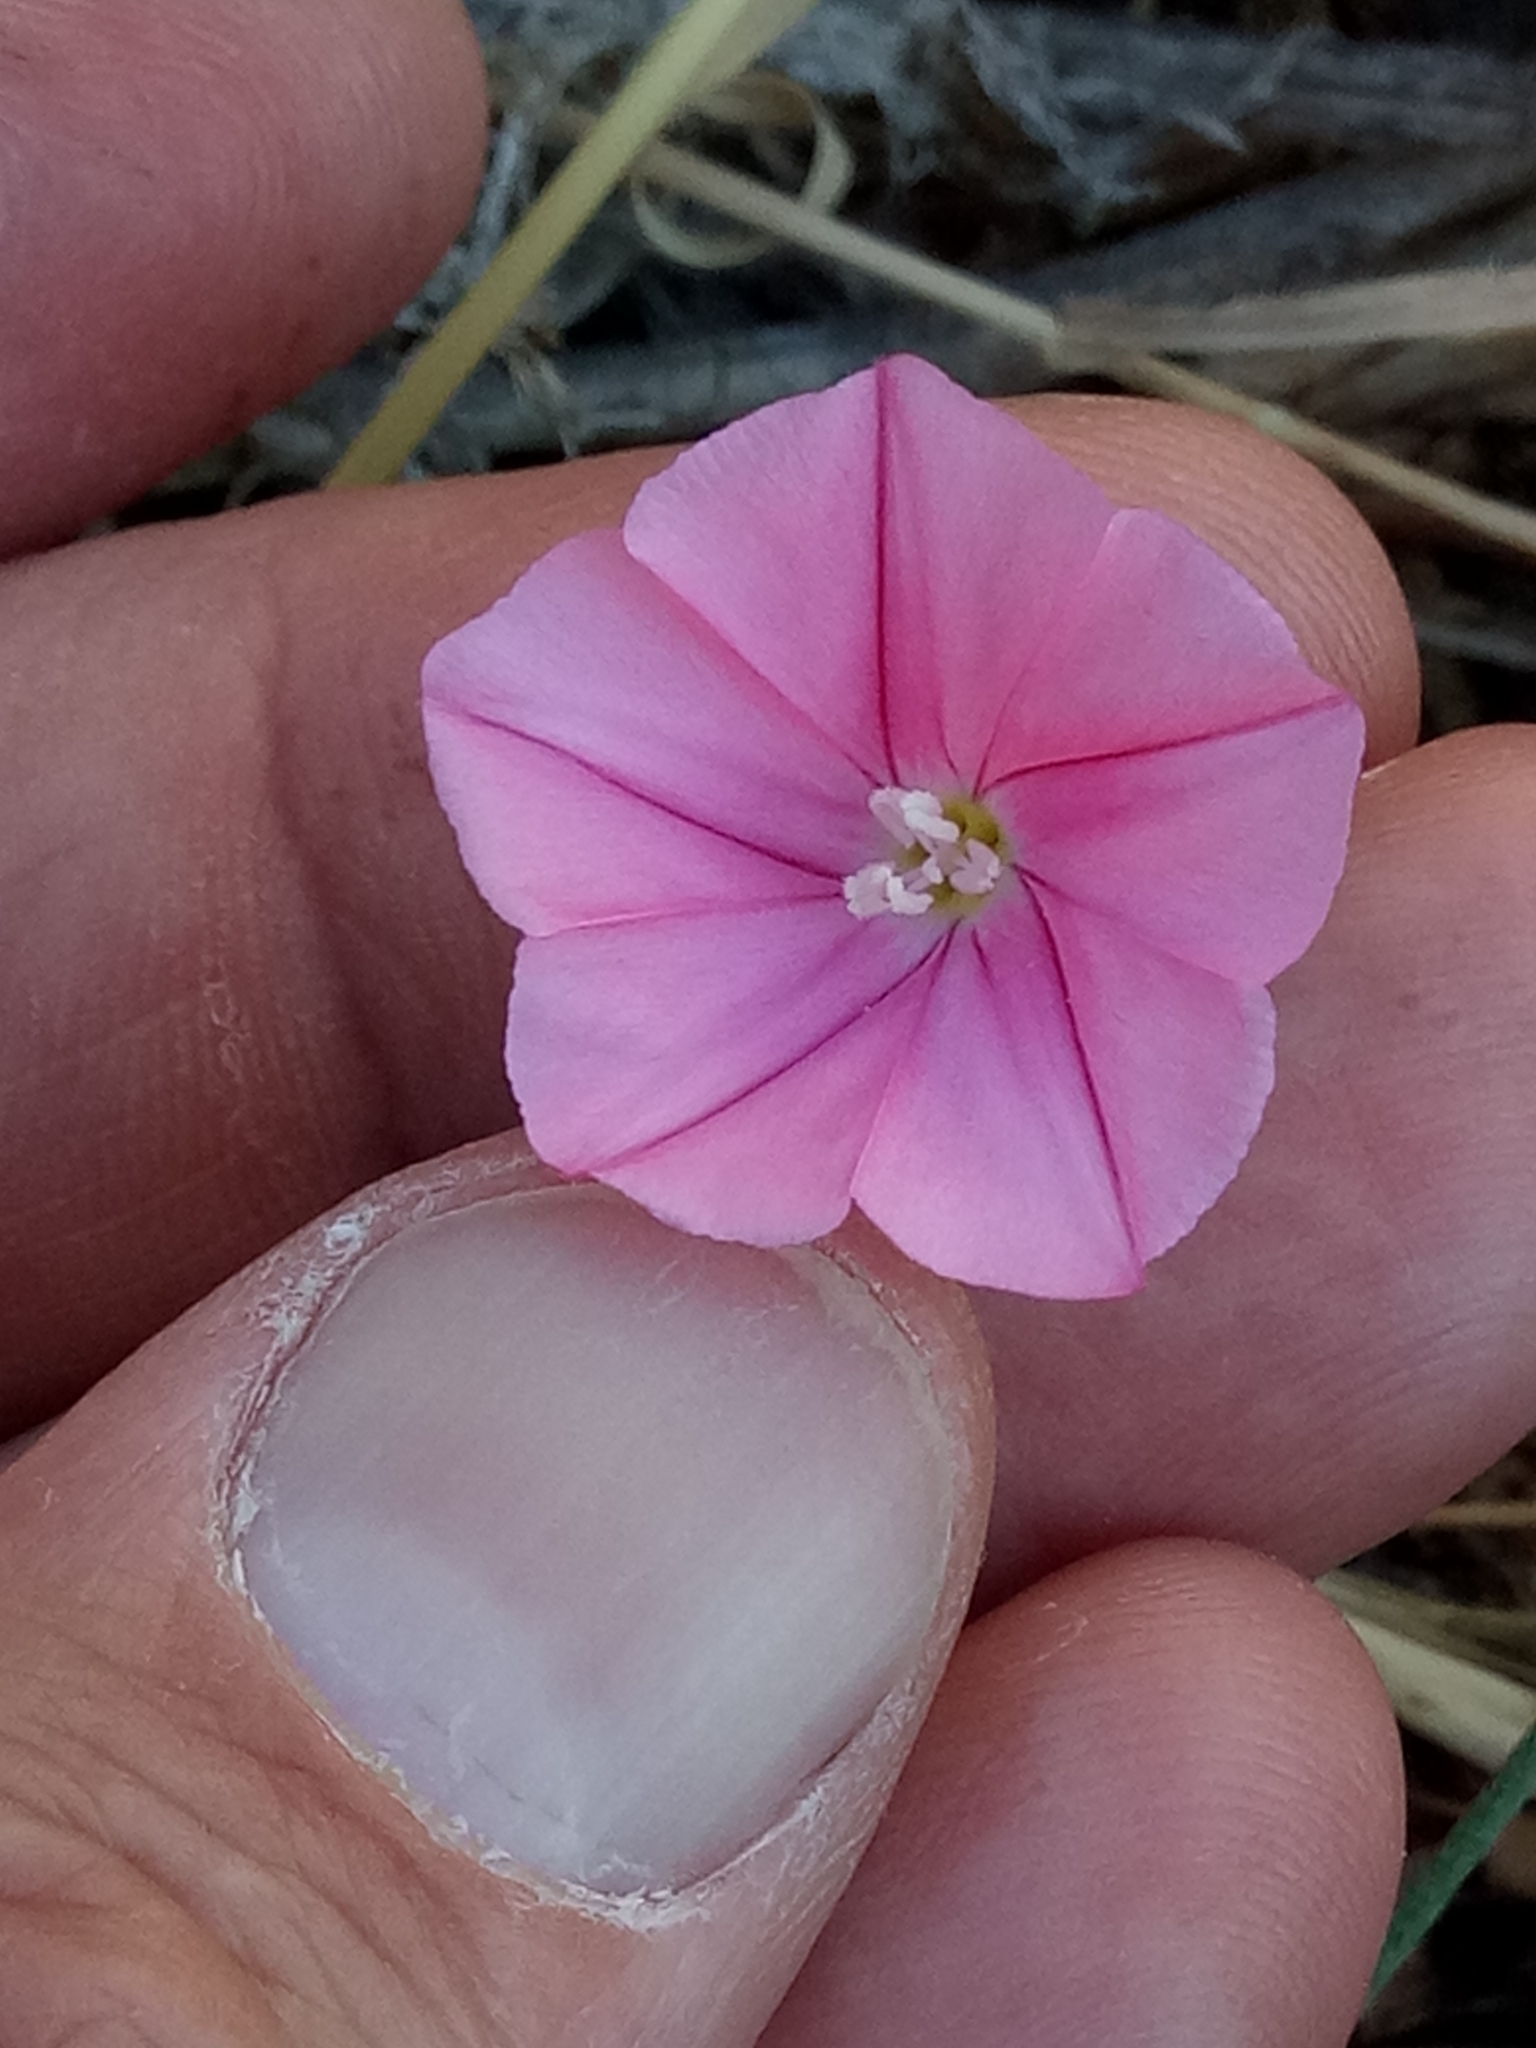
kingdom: Plantae
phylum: Tracheophyta
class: Magnoliopsida
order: Solanales
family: Convolvulaceae
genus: Convolvulus
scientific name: Convolvulus cantabrica
